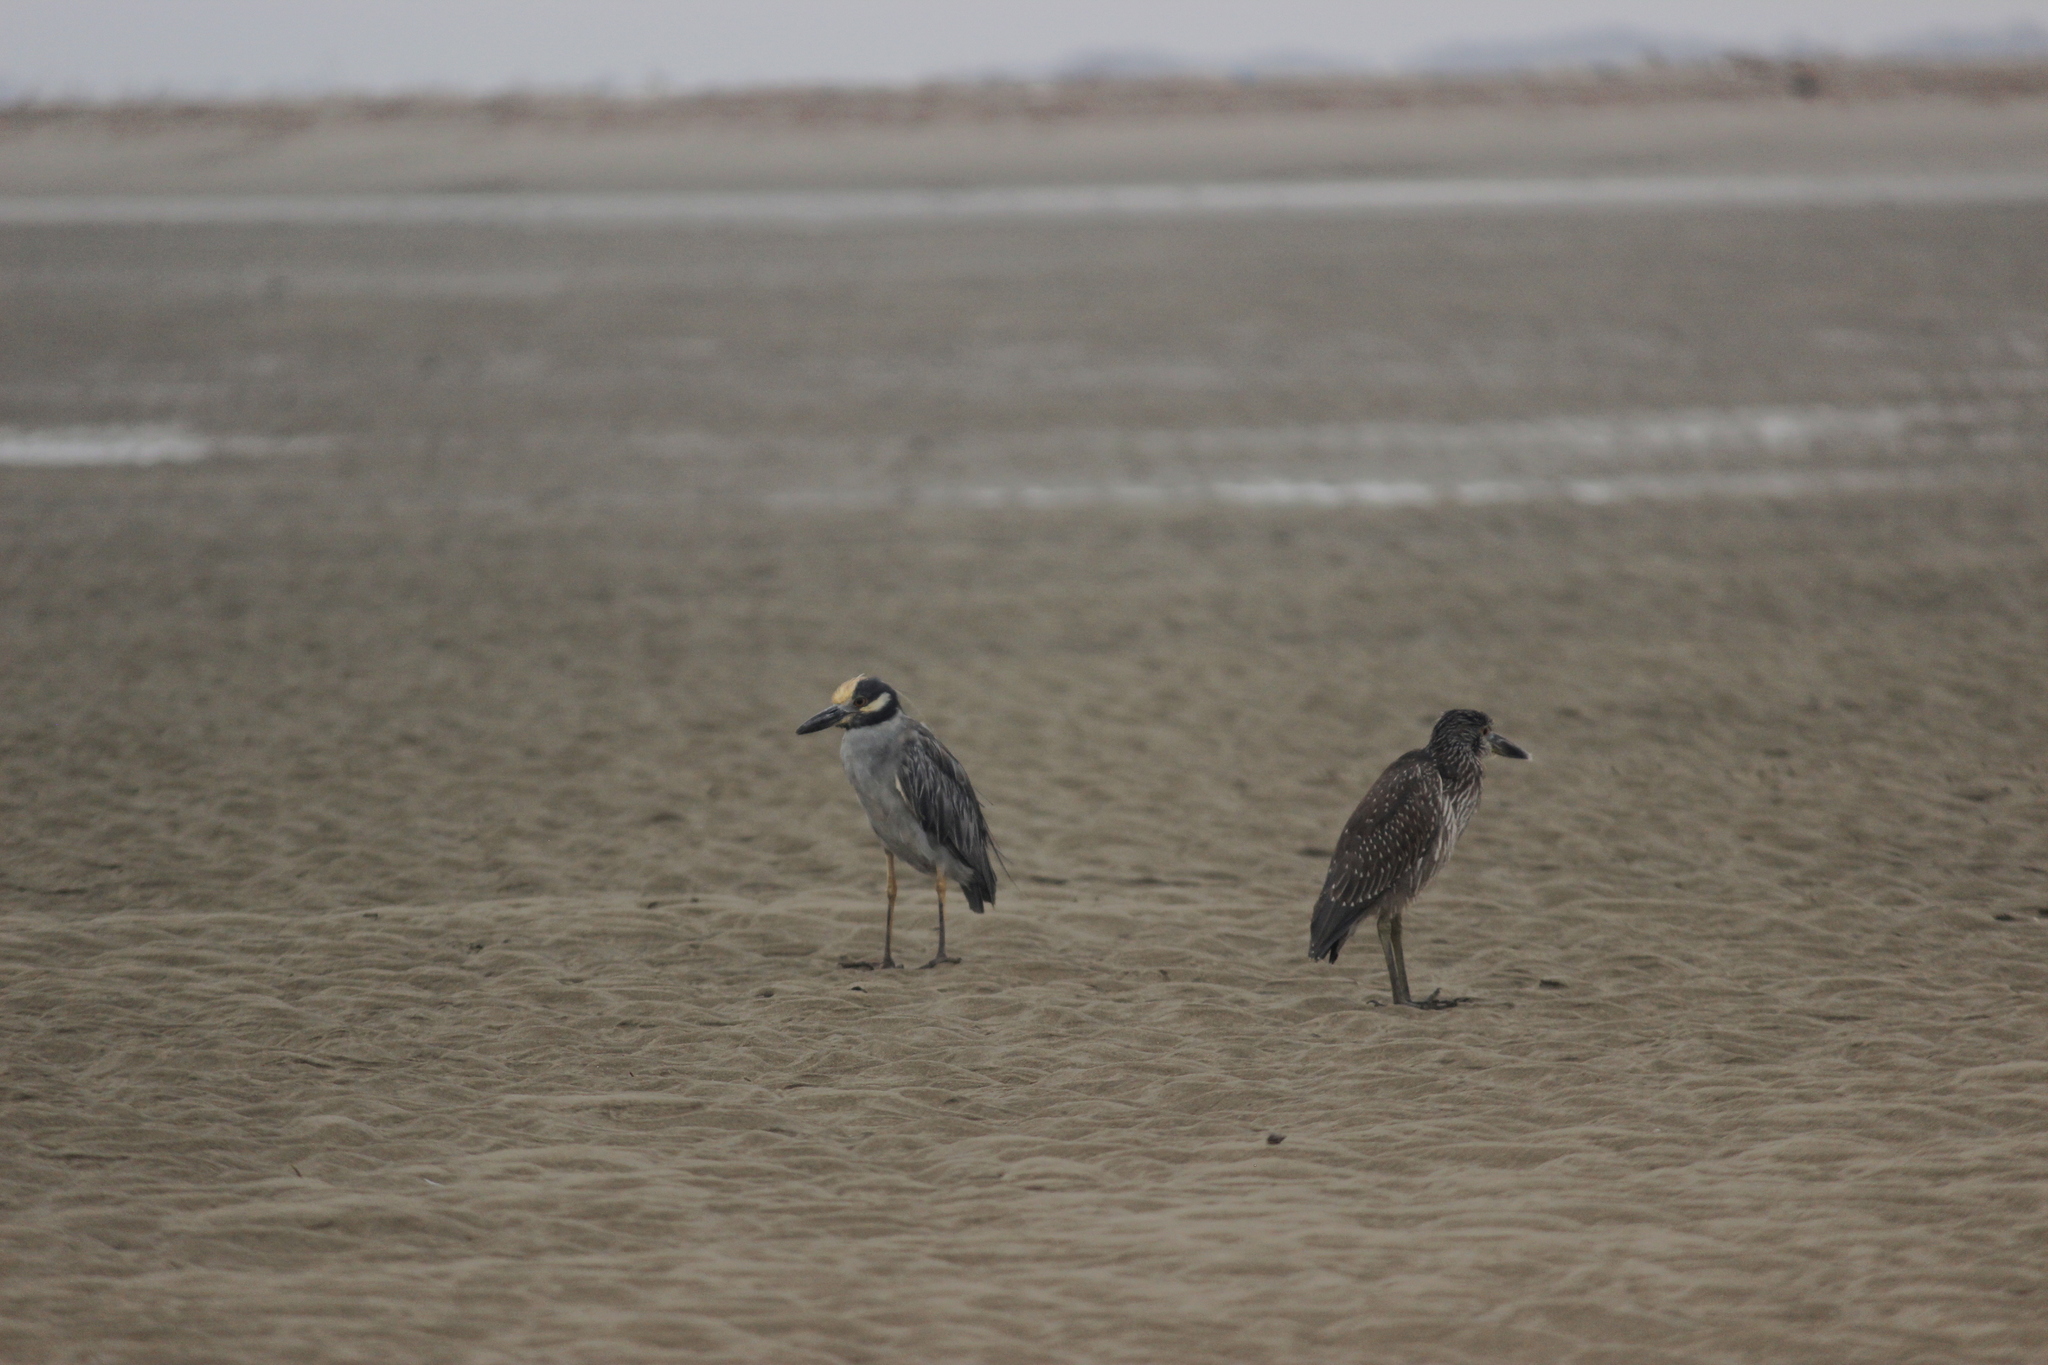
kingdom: Animalia
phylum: Chordata
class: Aves
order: Pelecaniformes
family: Ardeidae
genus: Nyctanassa
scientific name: Nyctanassa violacea
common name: Yellow-crowned night heron
